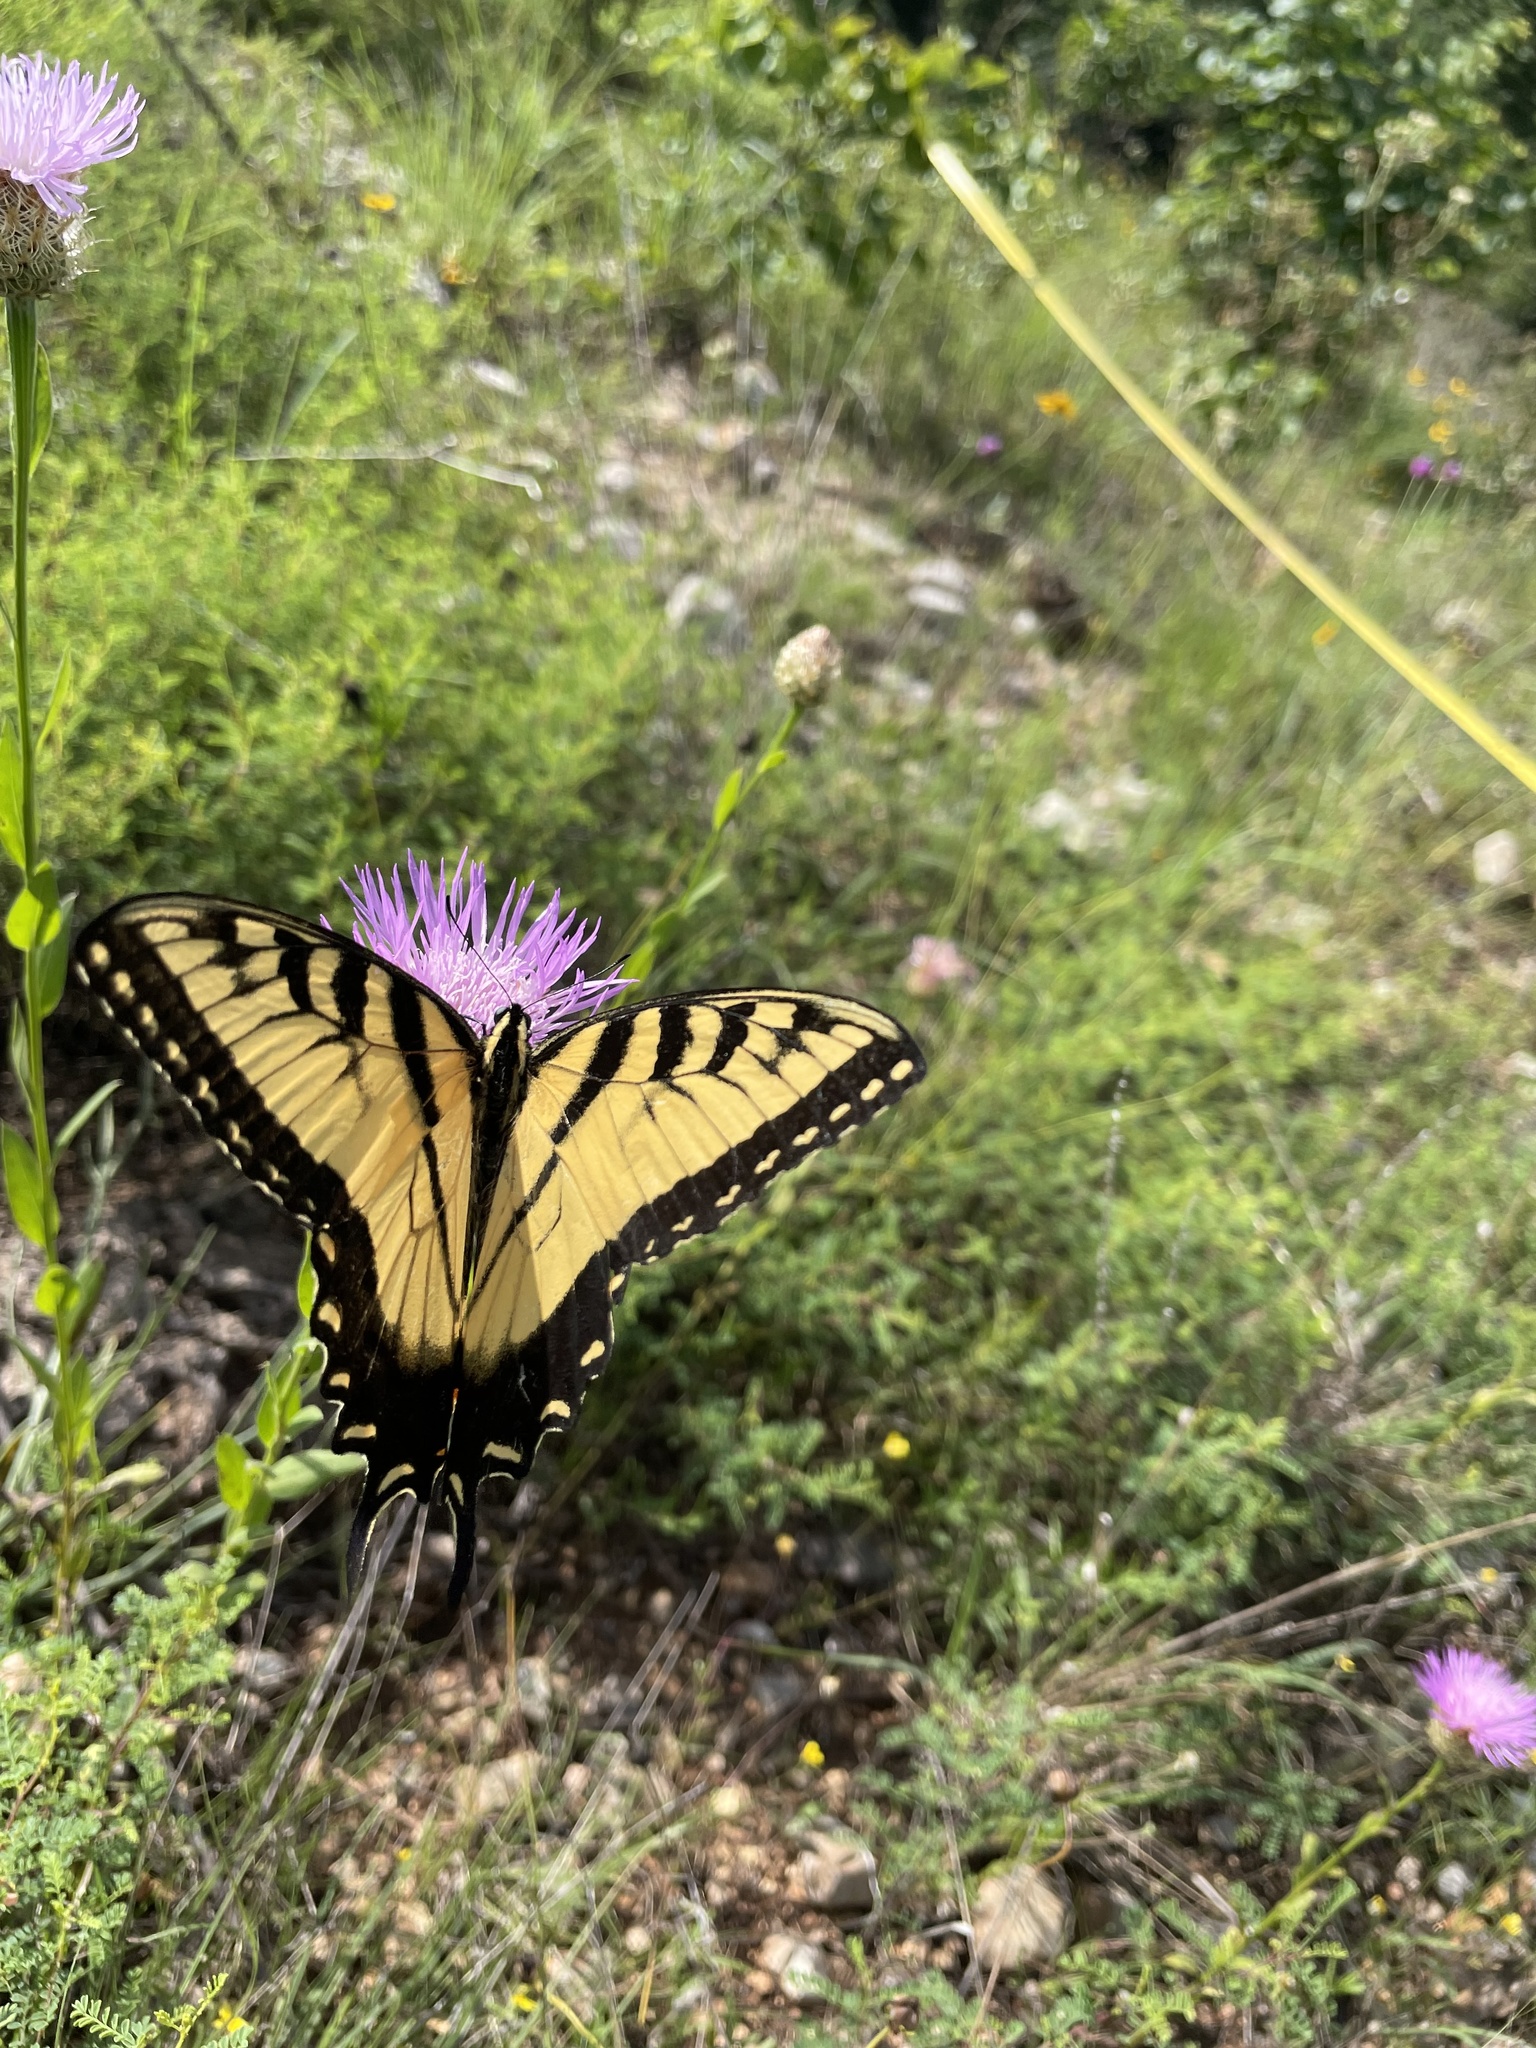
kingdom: Animalia
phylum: Arthropoda
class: Insecta
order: Lepidoptera
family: Papilionidae
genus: Papilio
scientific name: Papilio glaucus
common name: Tiger swallowtail
